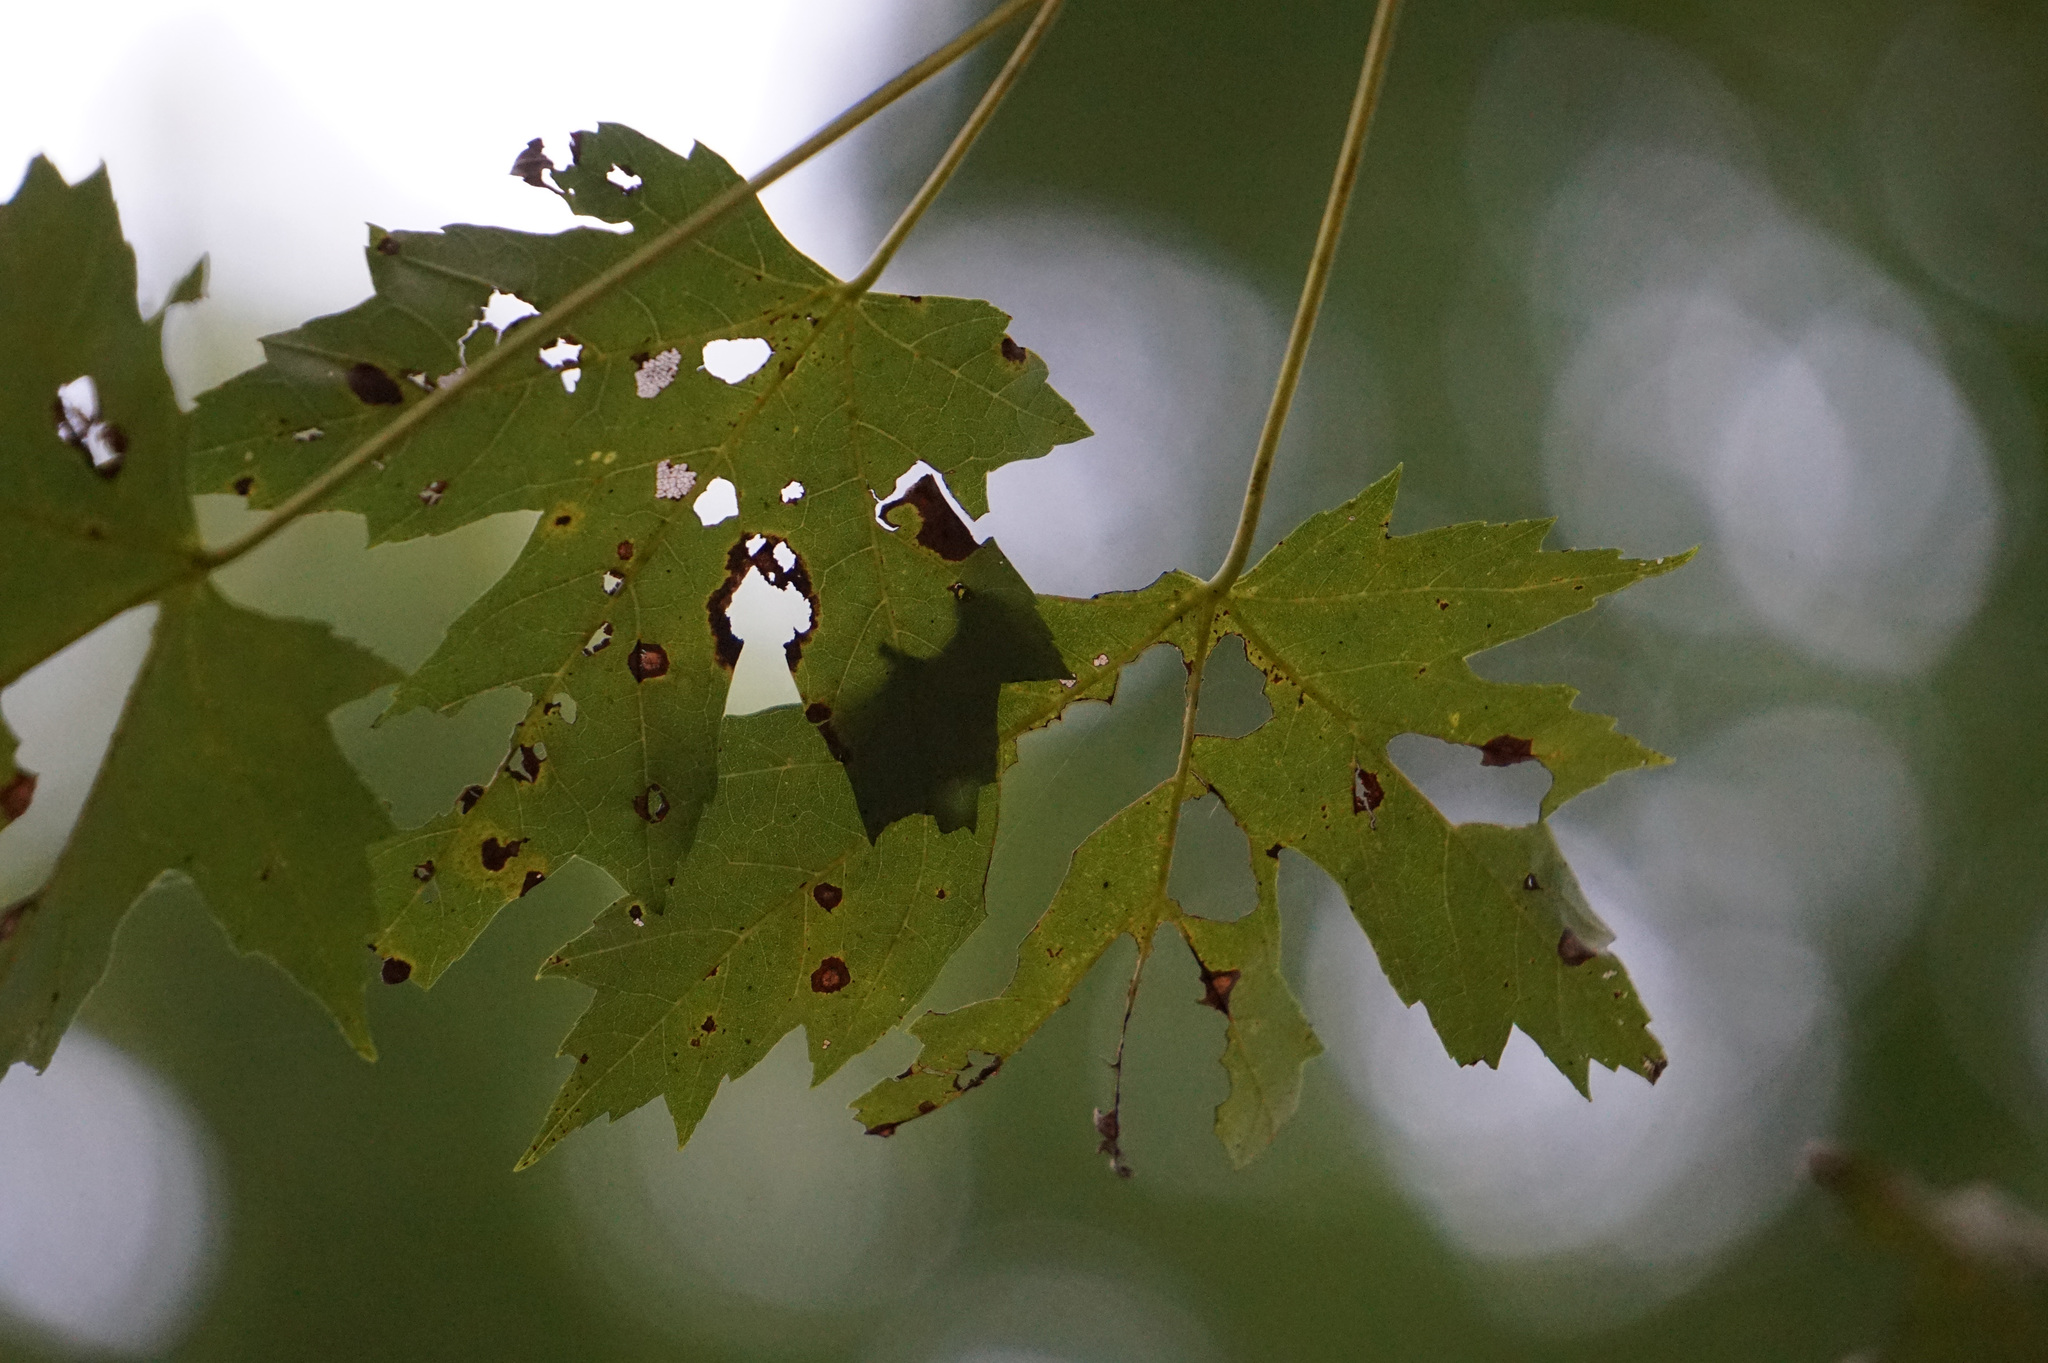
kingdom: Plantae
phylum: Tracheophyta
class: Magnoliopsida
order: Sapindales
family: Sapindaceae
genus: Acer
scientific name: Acer saccharinum
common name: Silver maple
